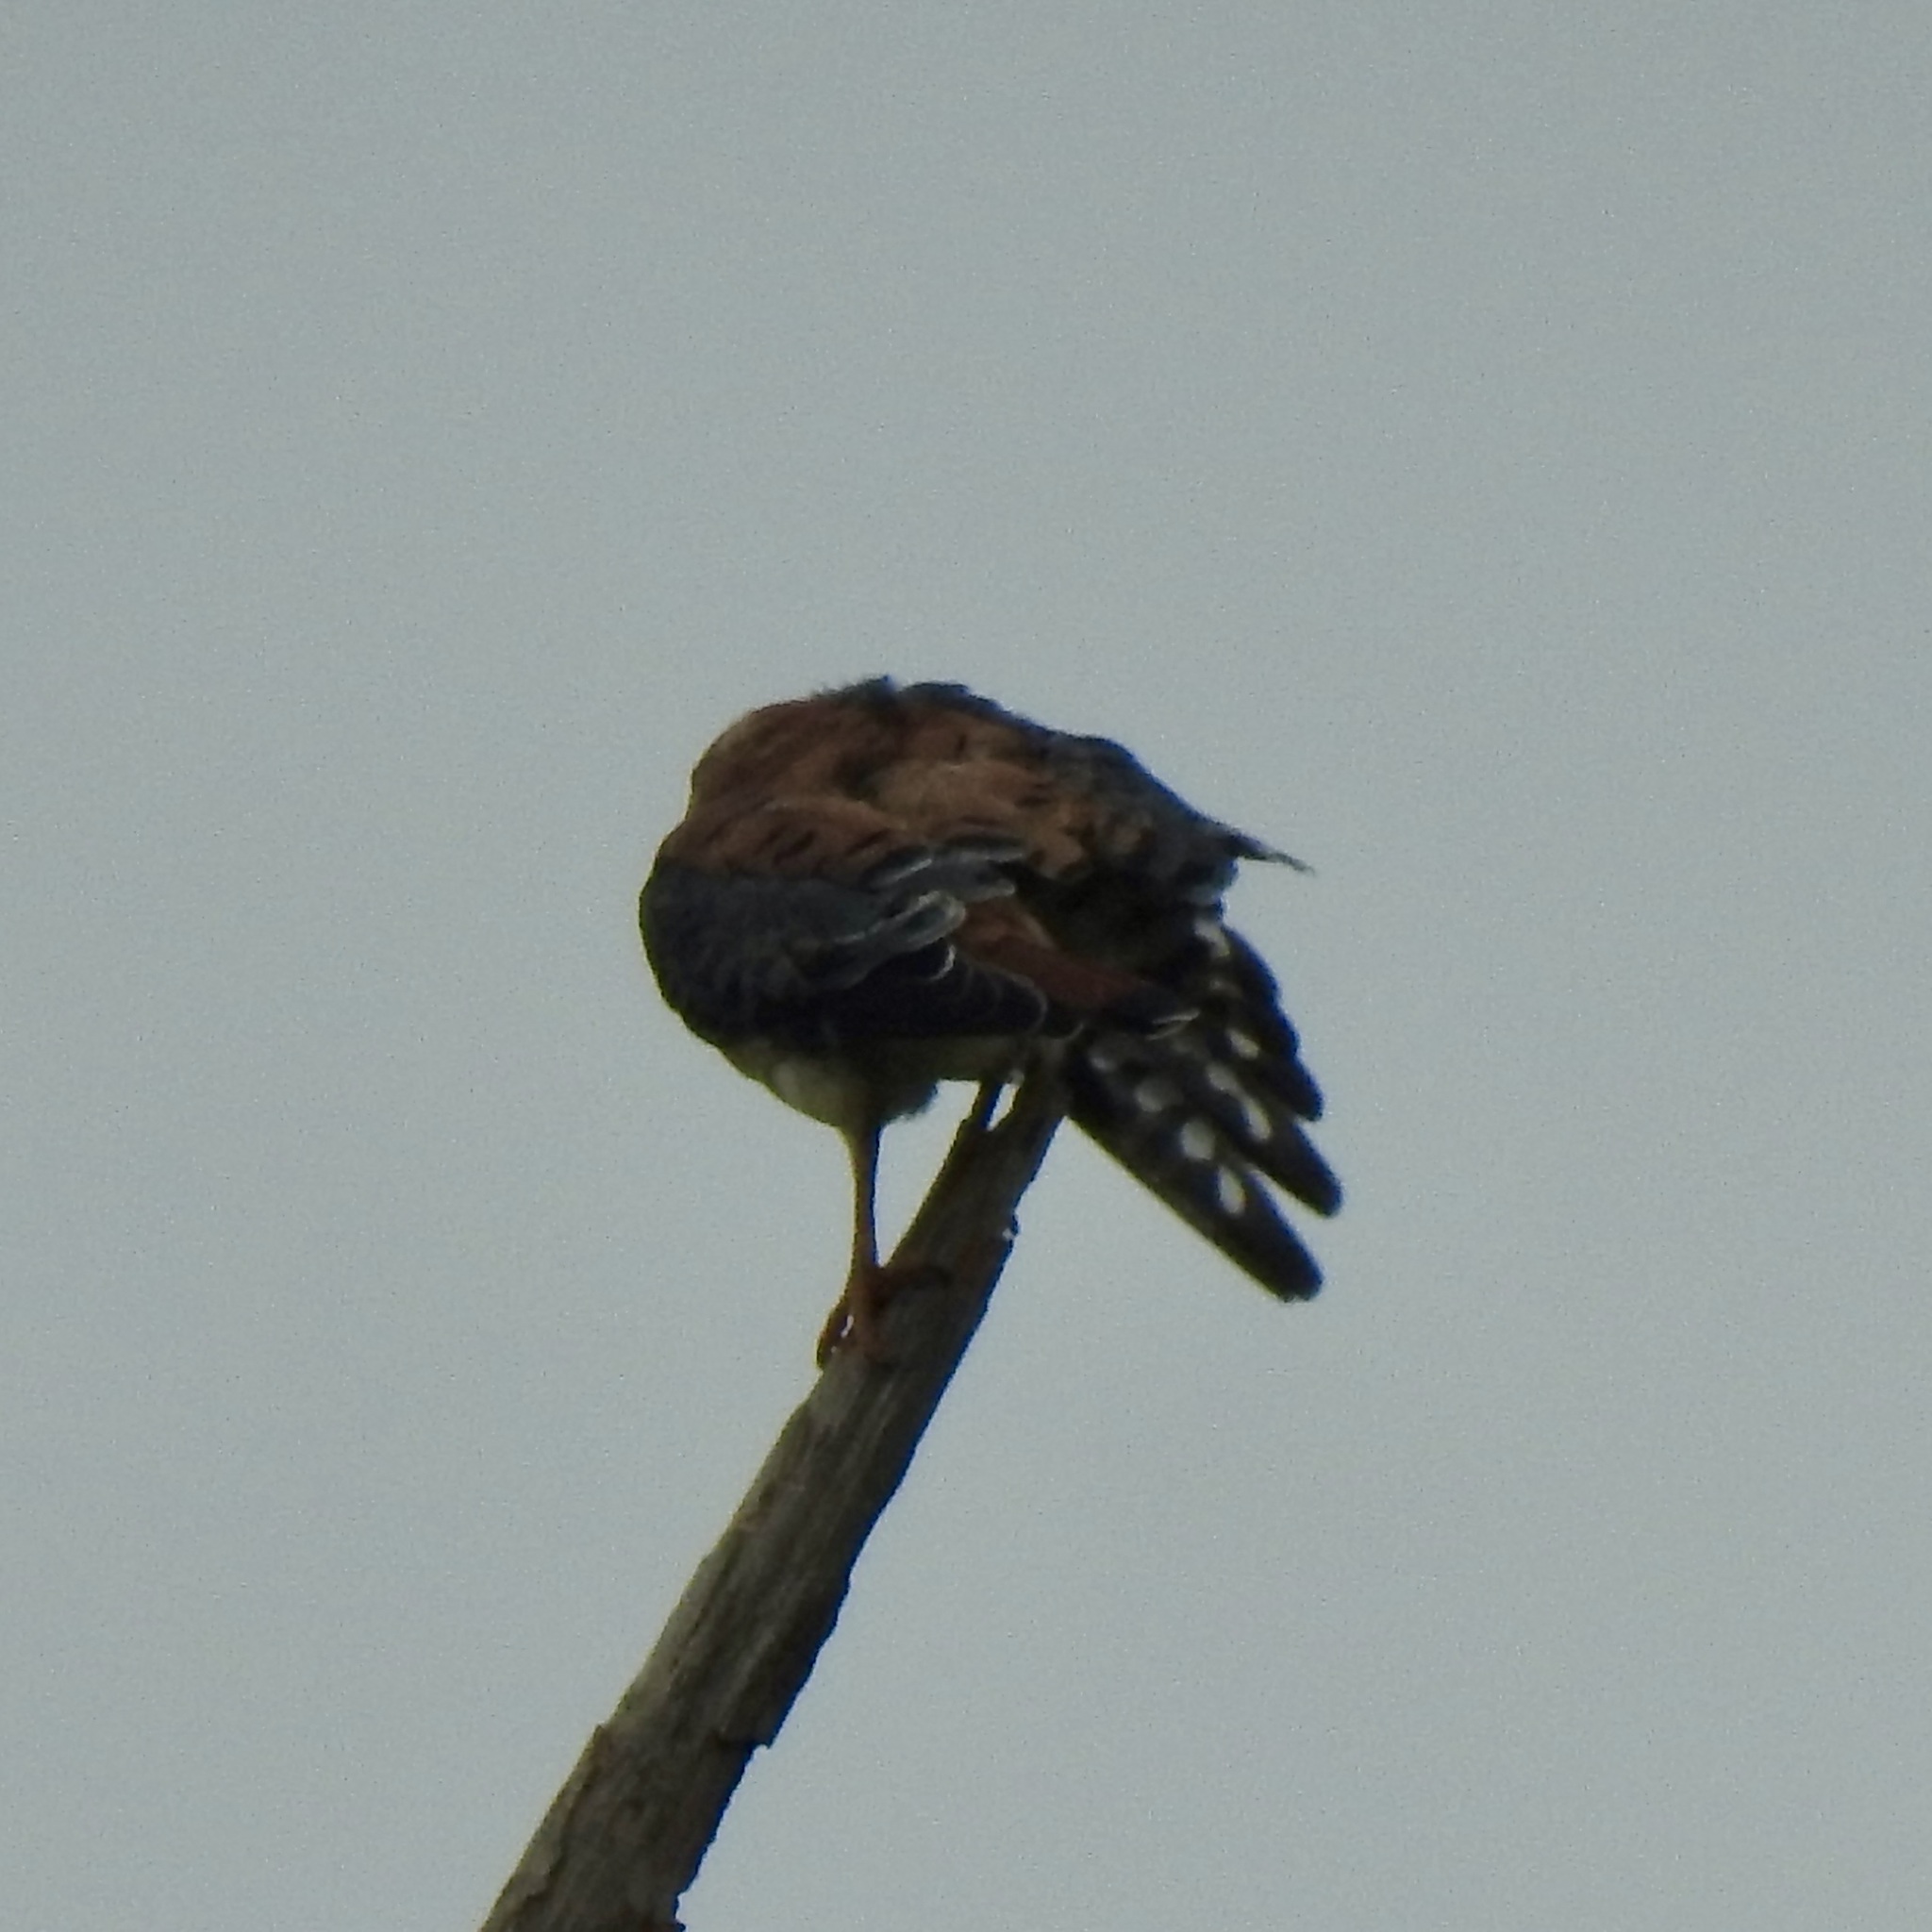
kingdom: Animalia
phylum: Chordata
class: Aves
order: Falconiformes
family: Falconidae
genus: Falco
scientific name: Falco sparverius
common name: American kestrel
